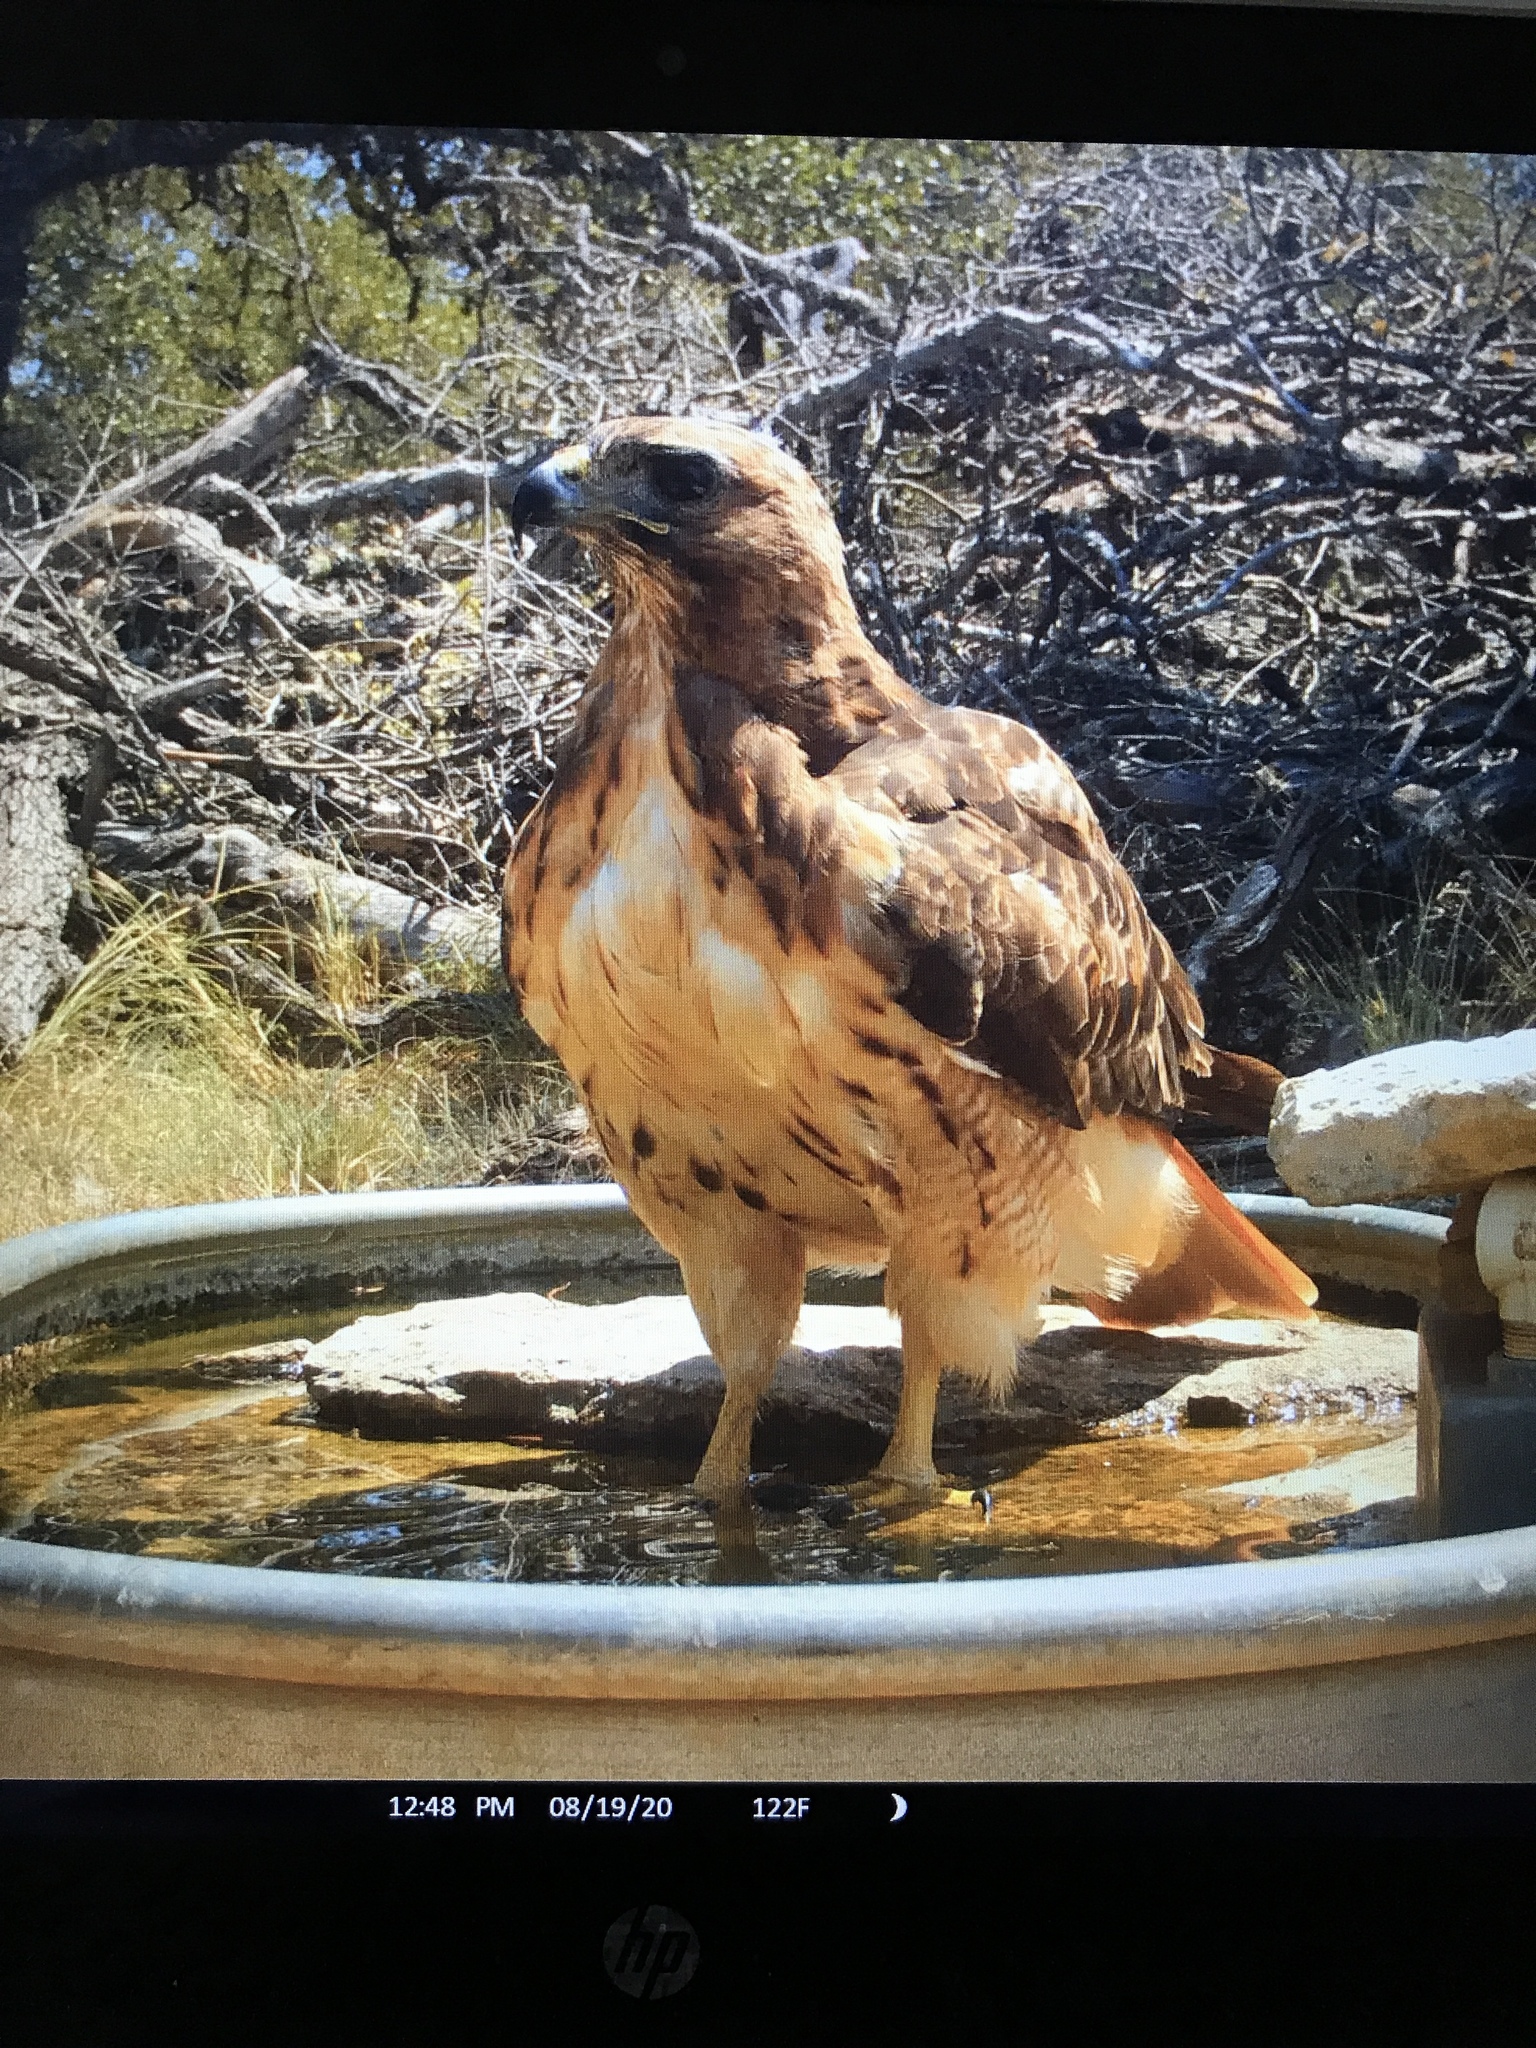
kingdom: Animalia
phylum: Chordata
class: Aves
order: Accipitriformes
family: Accipitridae
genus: Buteo
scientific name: Buteo jamaicensis
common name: Red-tailed hawk
